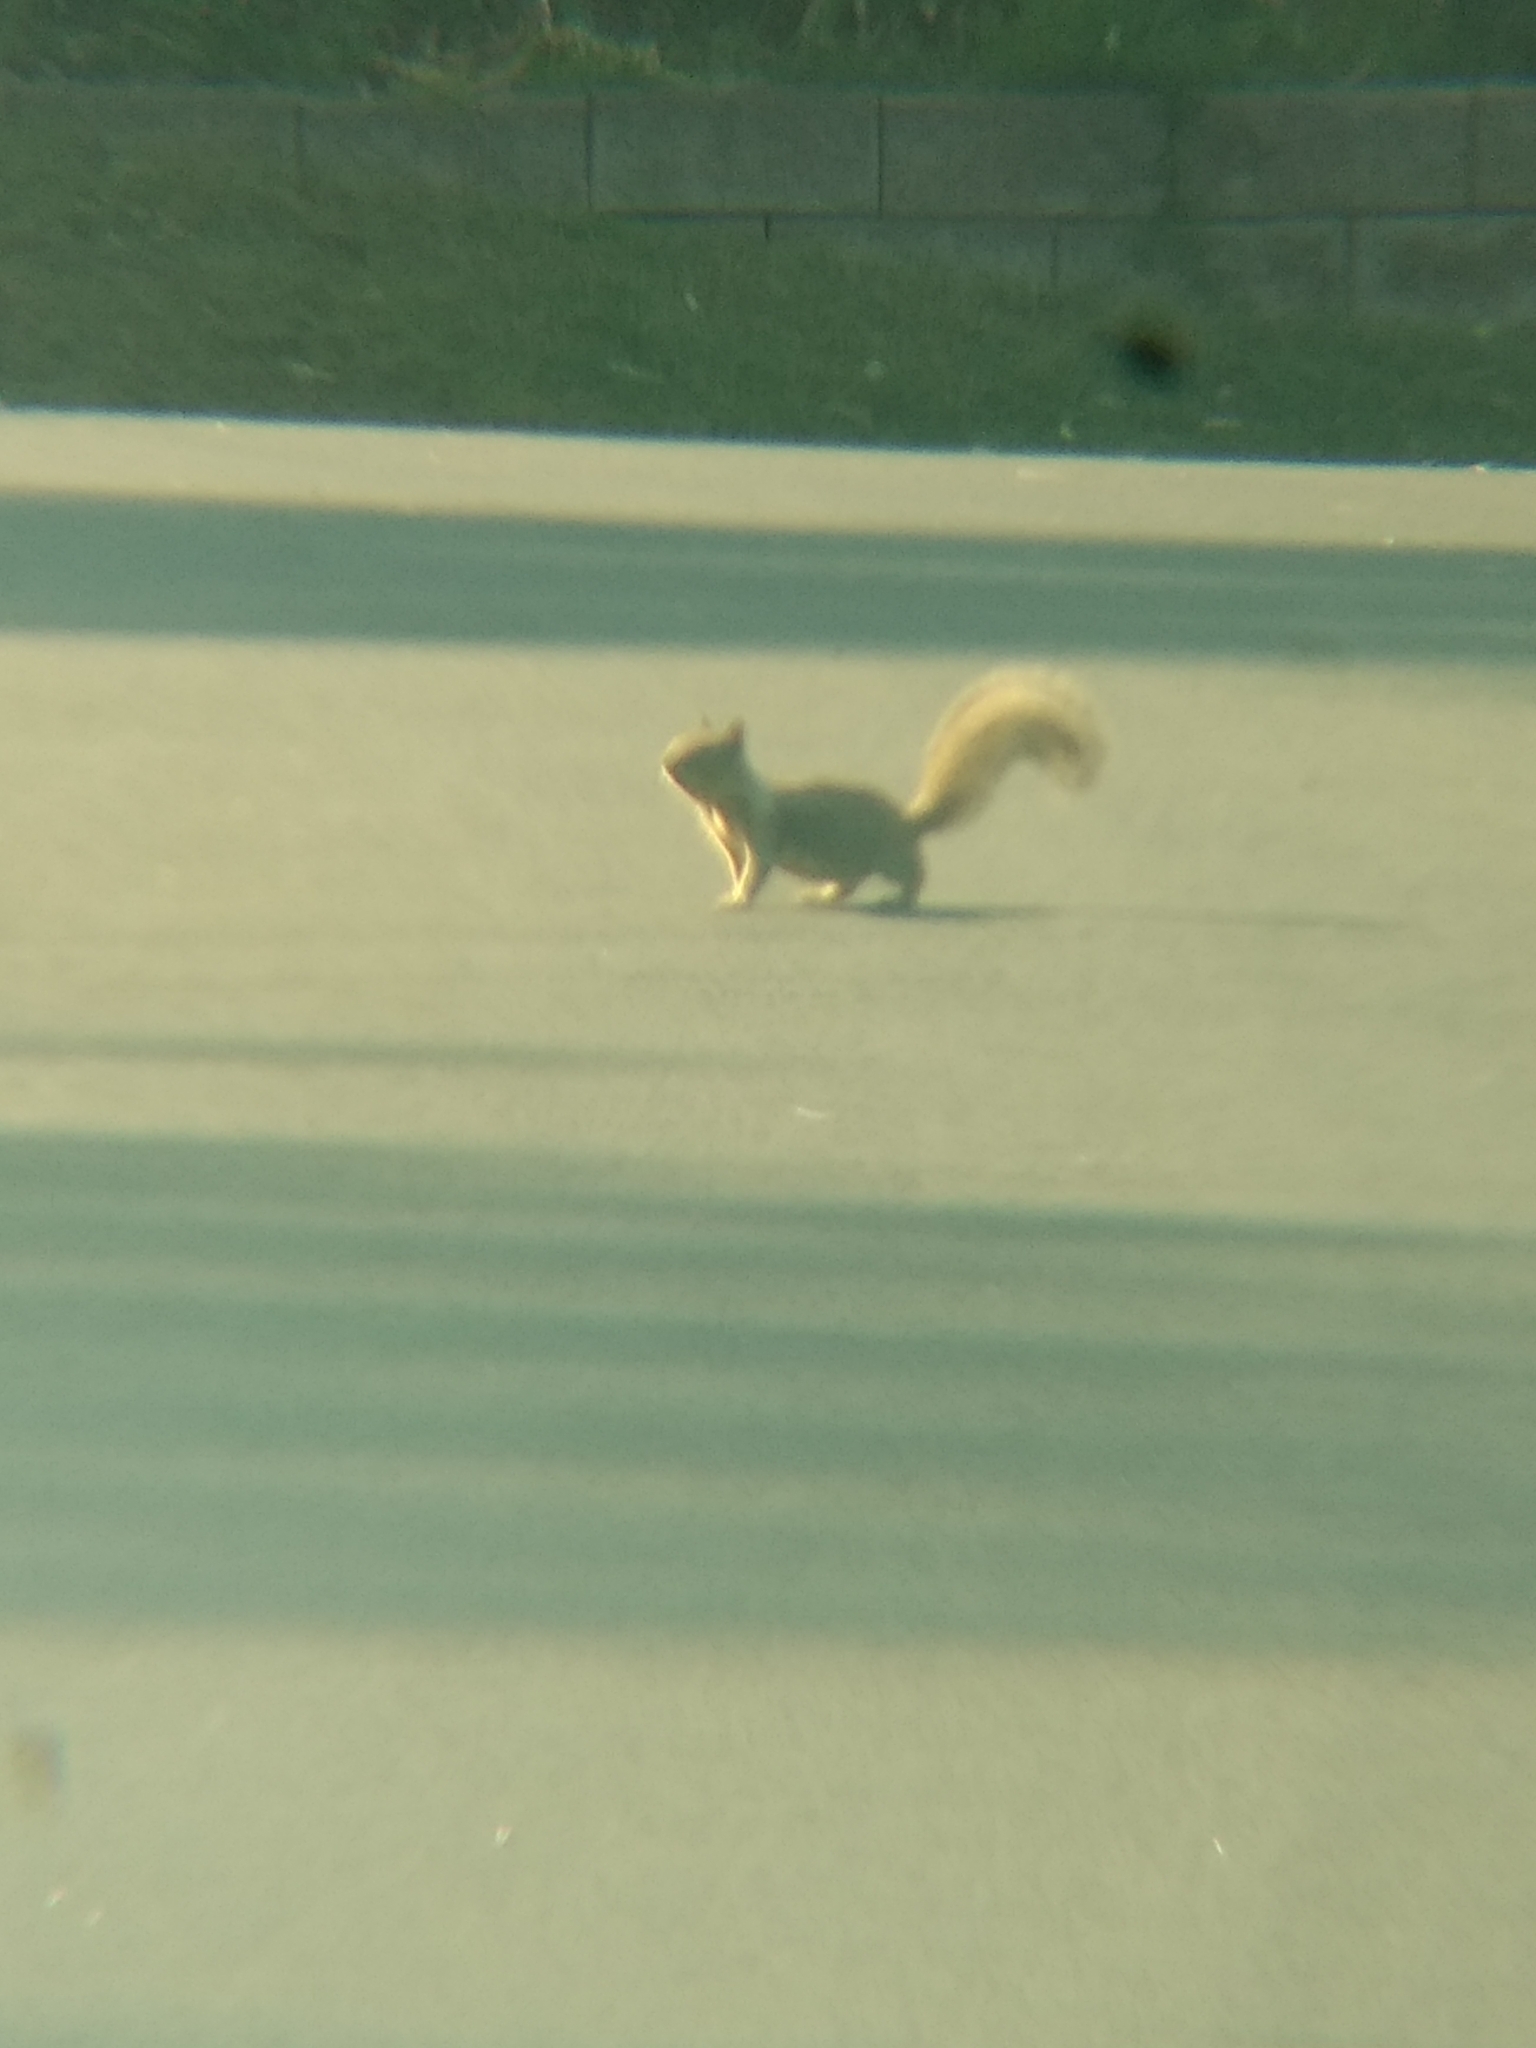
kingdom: Animalia
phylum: Chordata
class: Mammalia
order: Rodentia
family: Sciuridae
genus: Otospermophilus
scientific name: Otospermophilus beecheyi
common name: California ground squirrel
